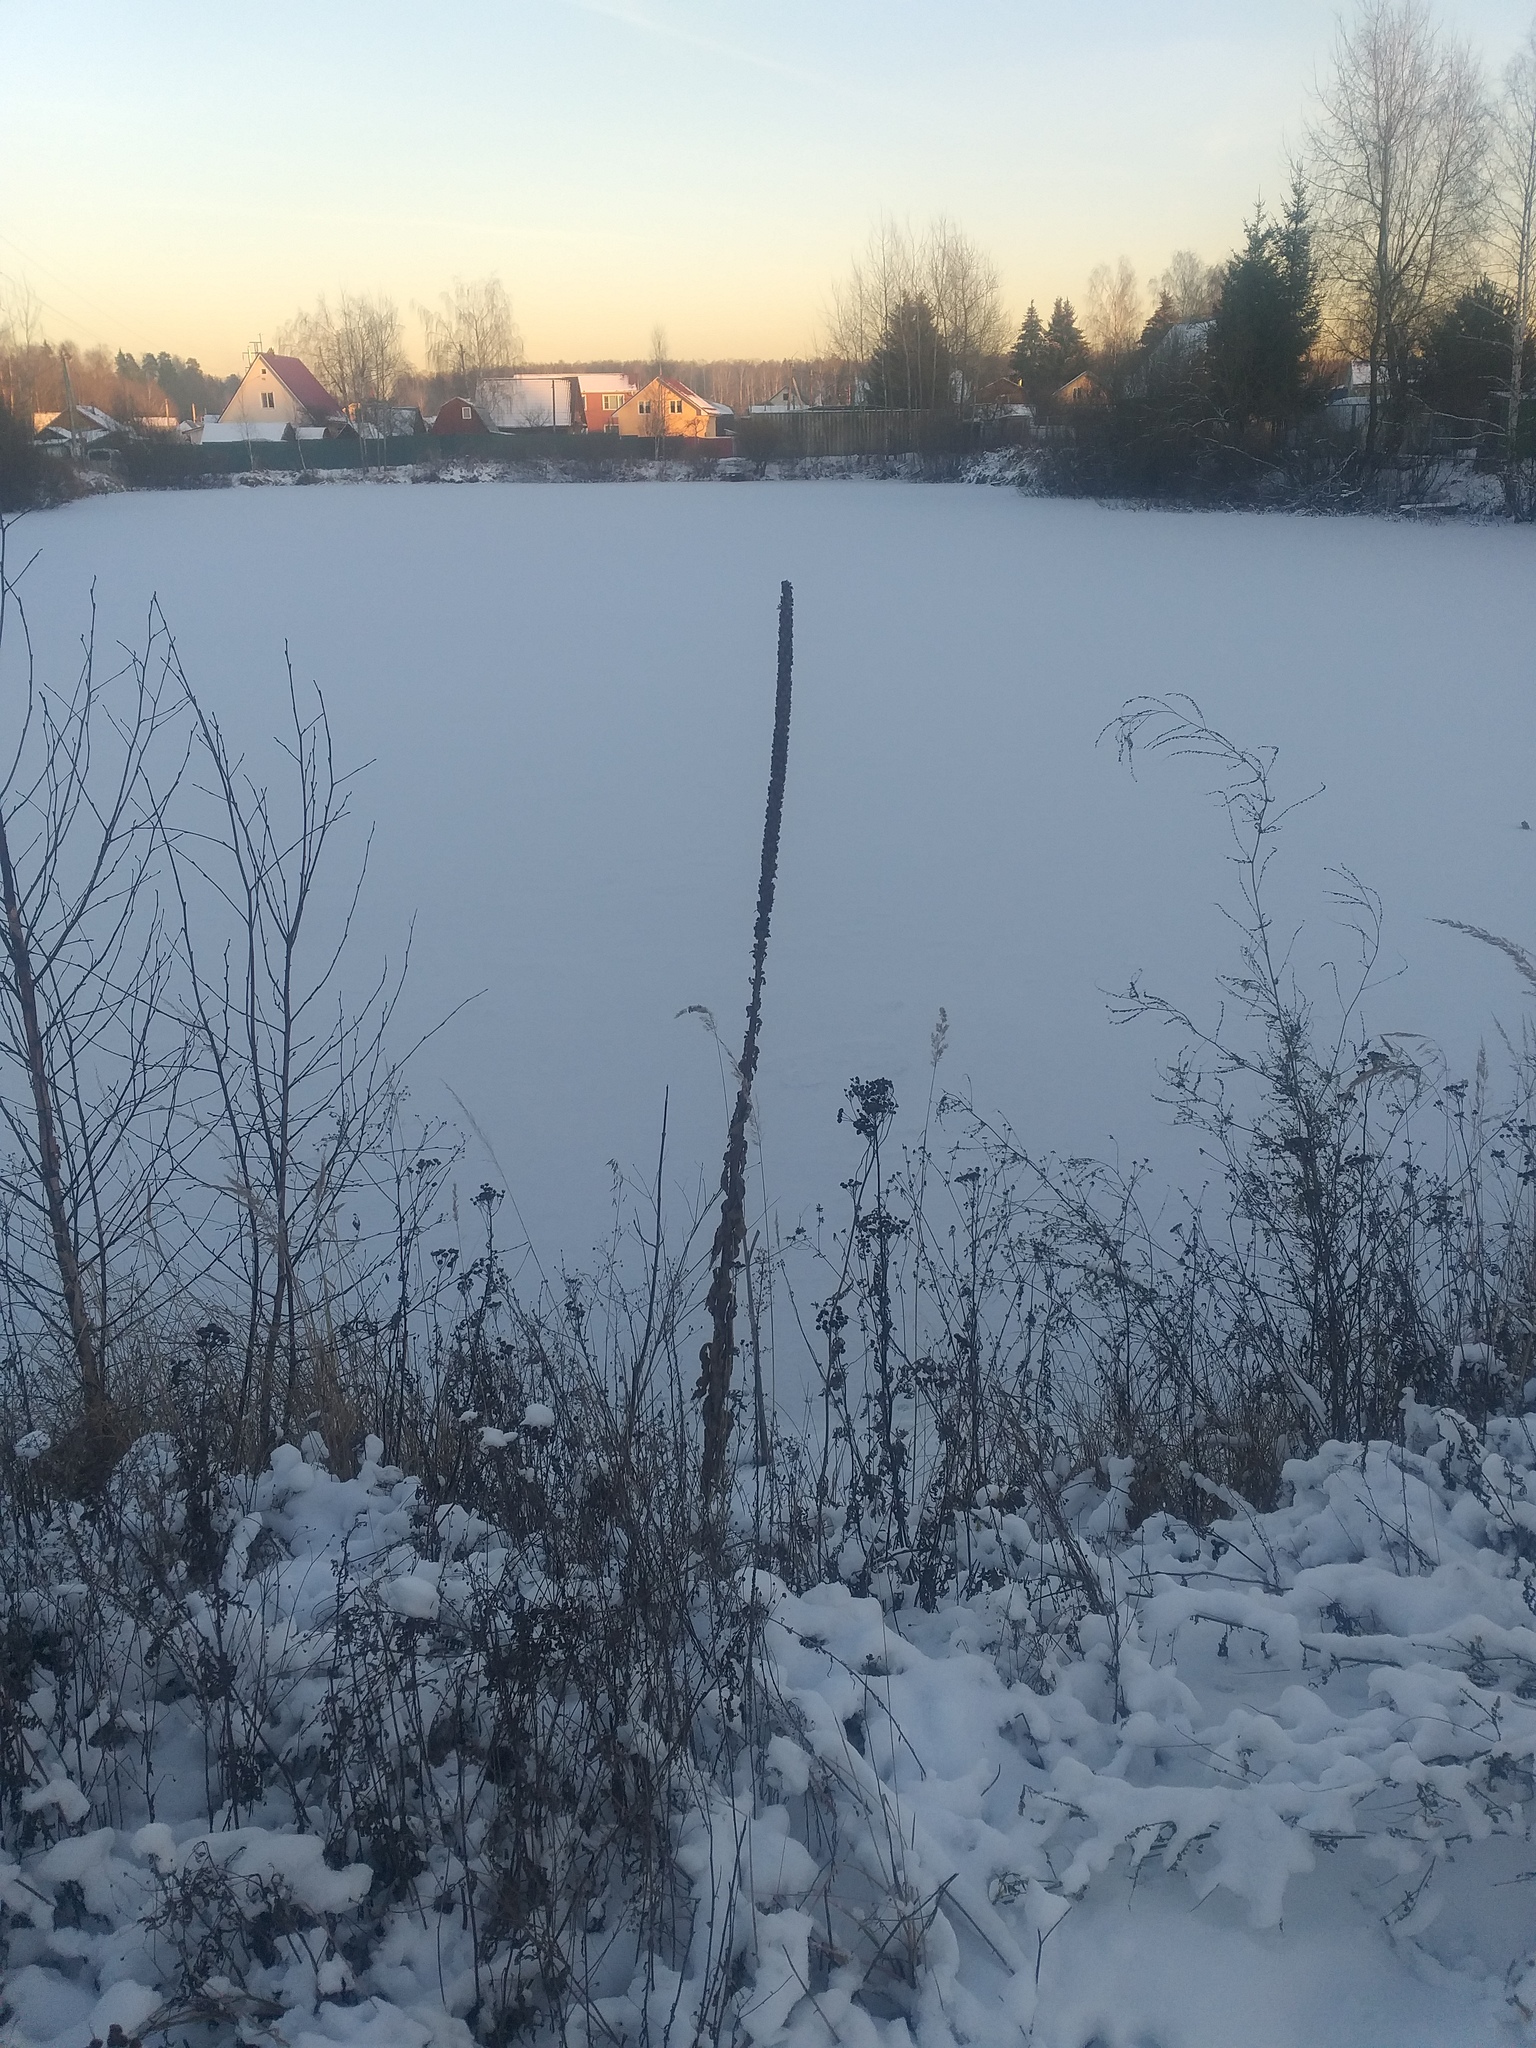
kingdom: Plantae
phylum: Tracheophyta
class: Magnoliopsida
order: Lamiales
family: Scrophulariaceae
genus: Verbascum
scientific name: Verbascum thapsus
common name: Common mullein
